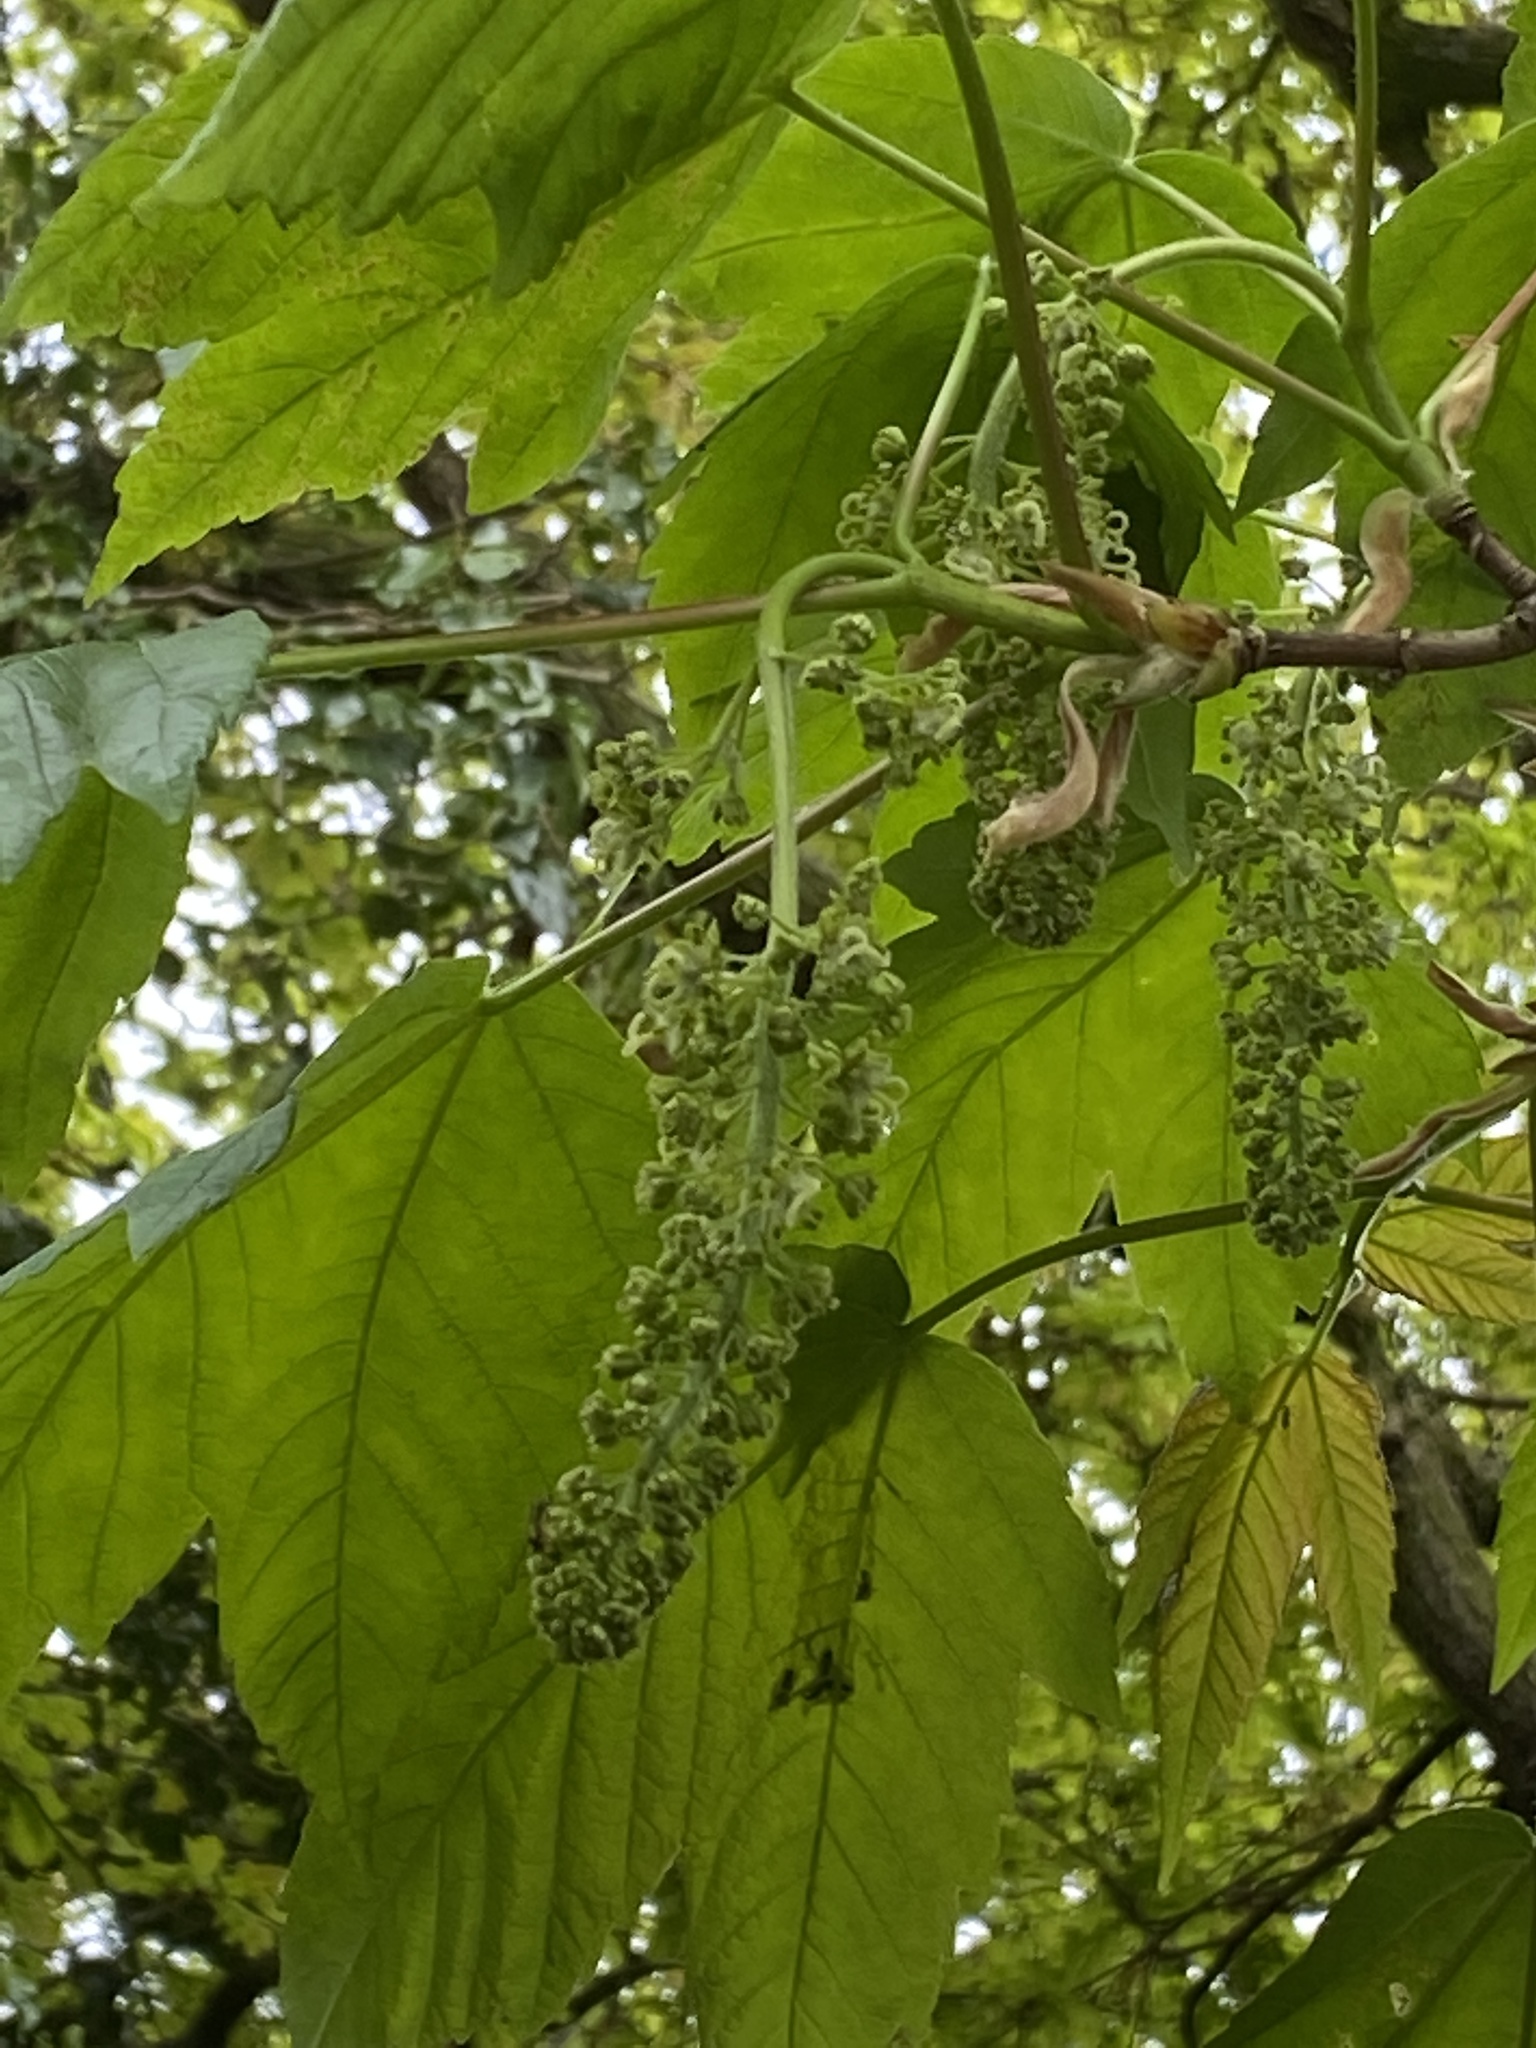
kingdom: Plantae
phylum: Tracheophyta
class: Magnoliopsida
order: Sapindales
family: Sapindaceae
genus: Acer
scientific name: Acer pseudoplatanus
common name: Sycamore
